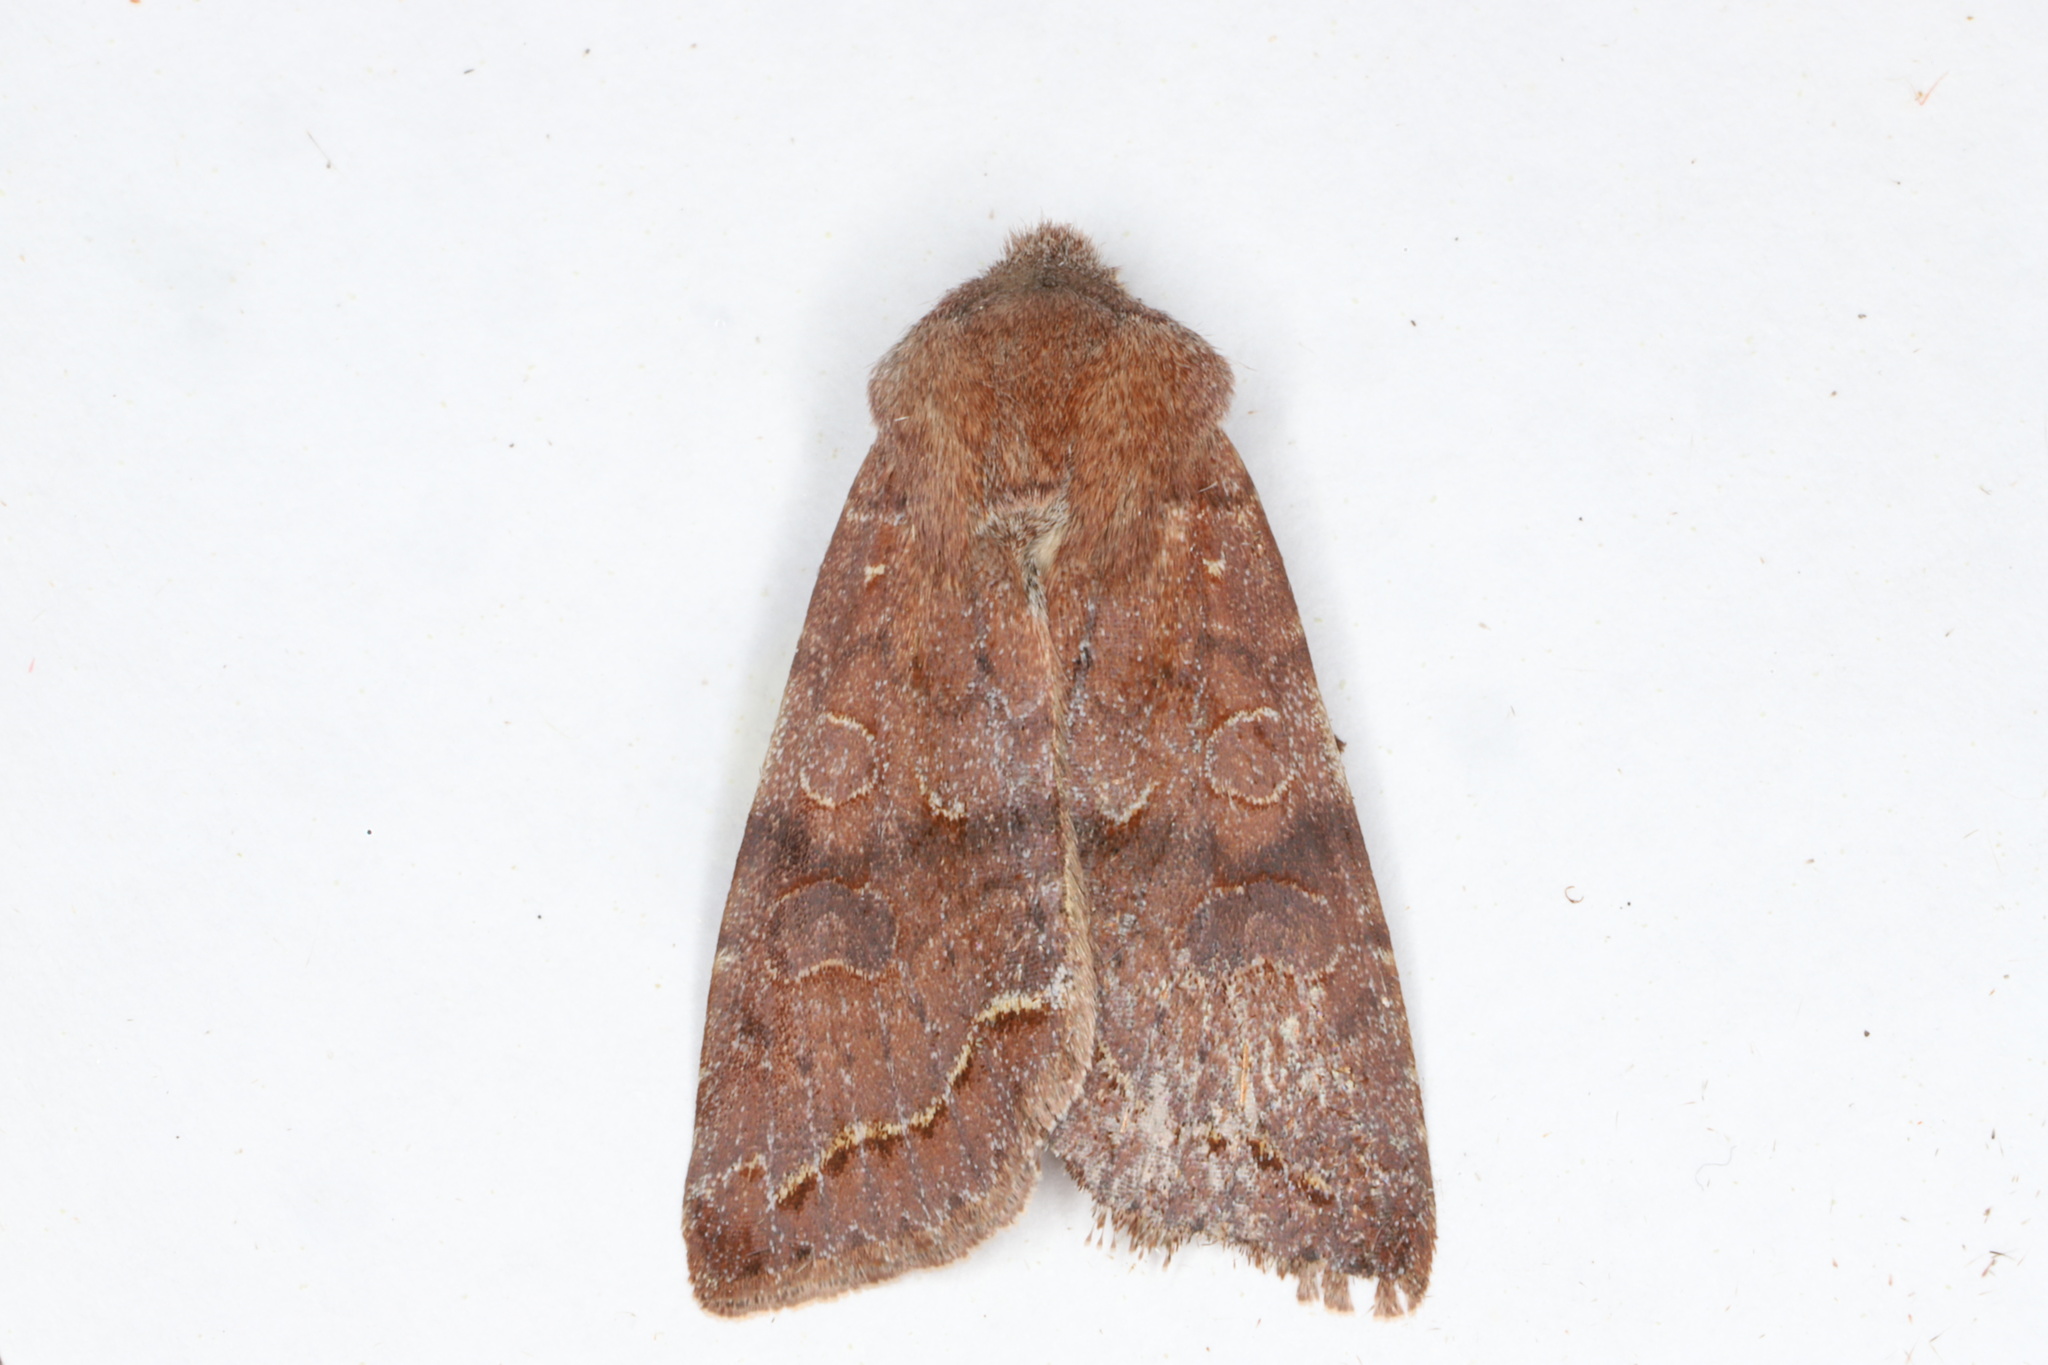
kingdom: Animalia
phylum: Arthropoda
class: Insecta
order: Lepidoptera
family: Noctuidae
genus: Orthosia
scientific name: Orthosia revicta
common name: Rusty whitesided caterpillar
